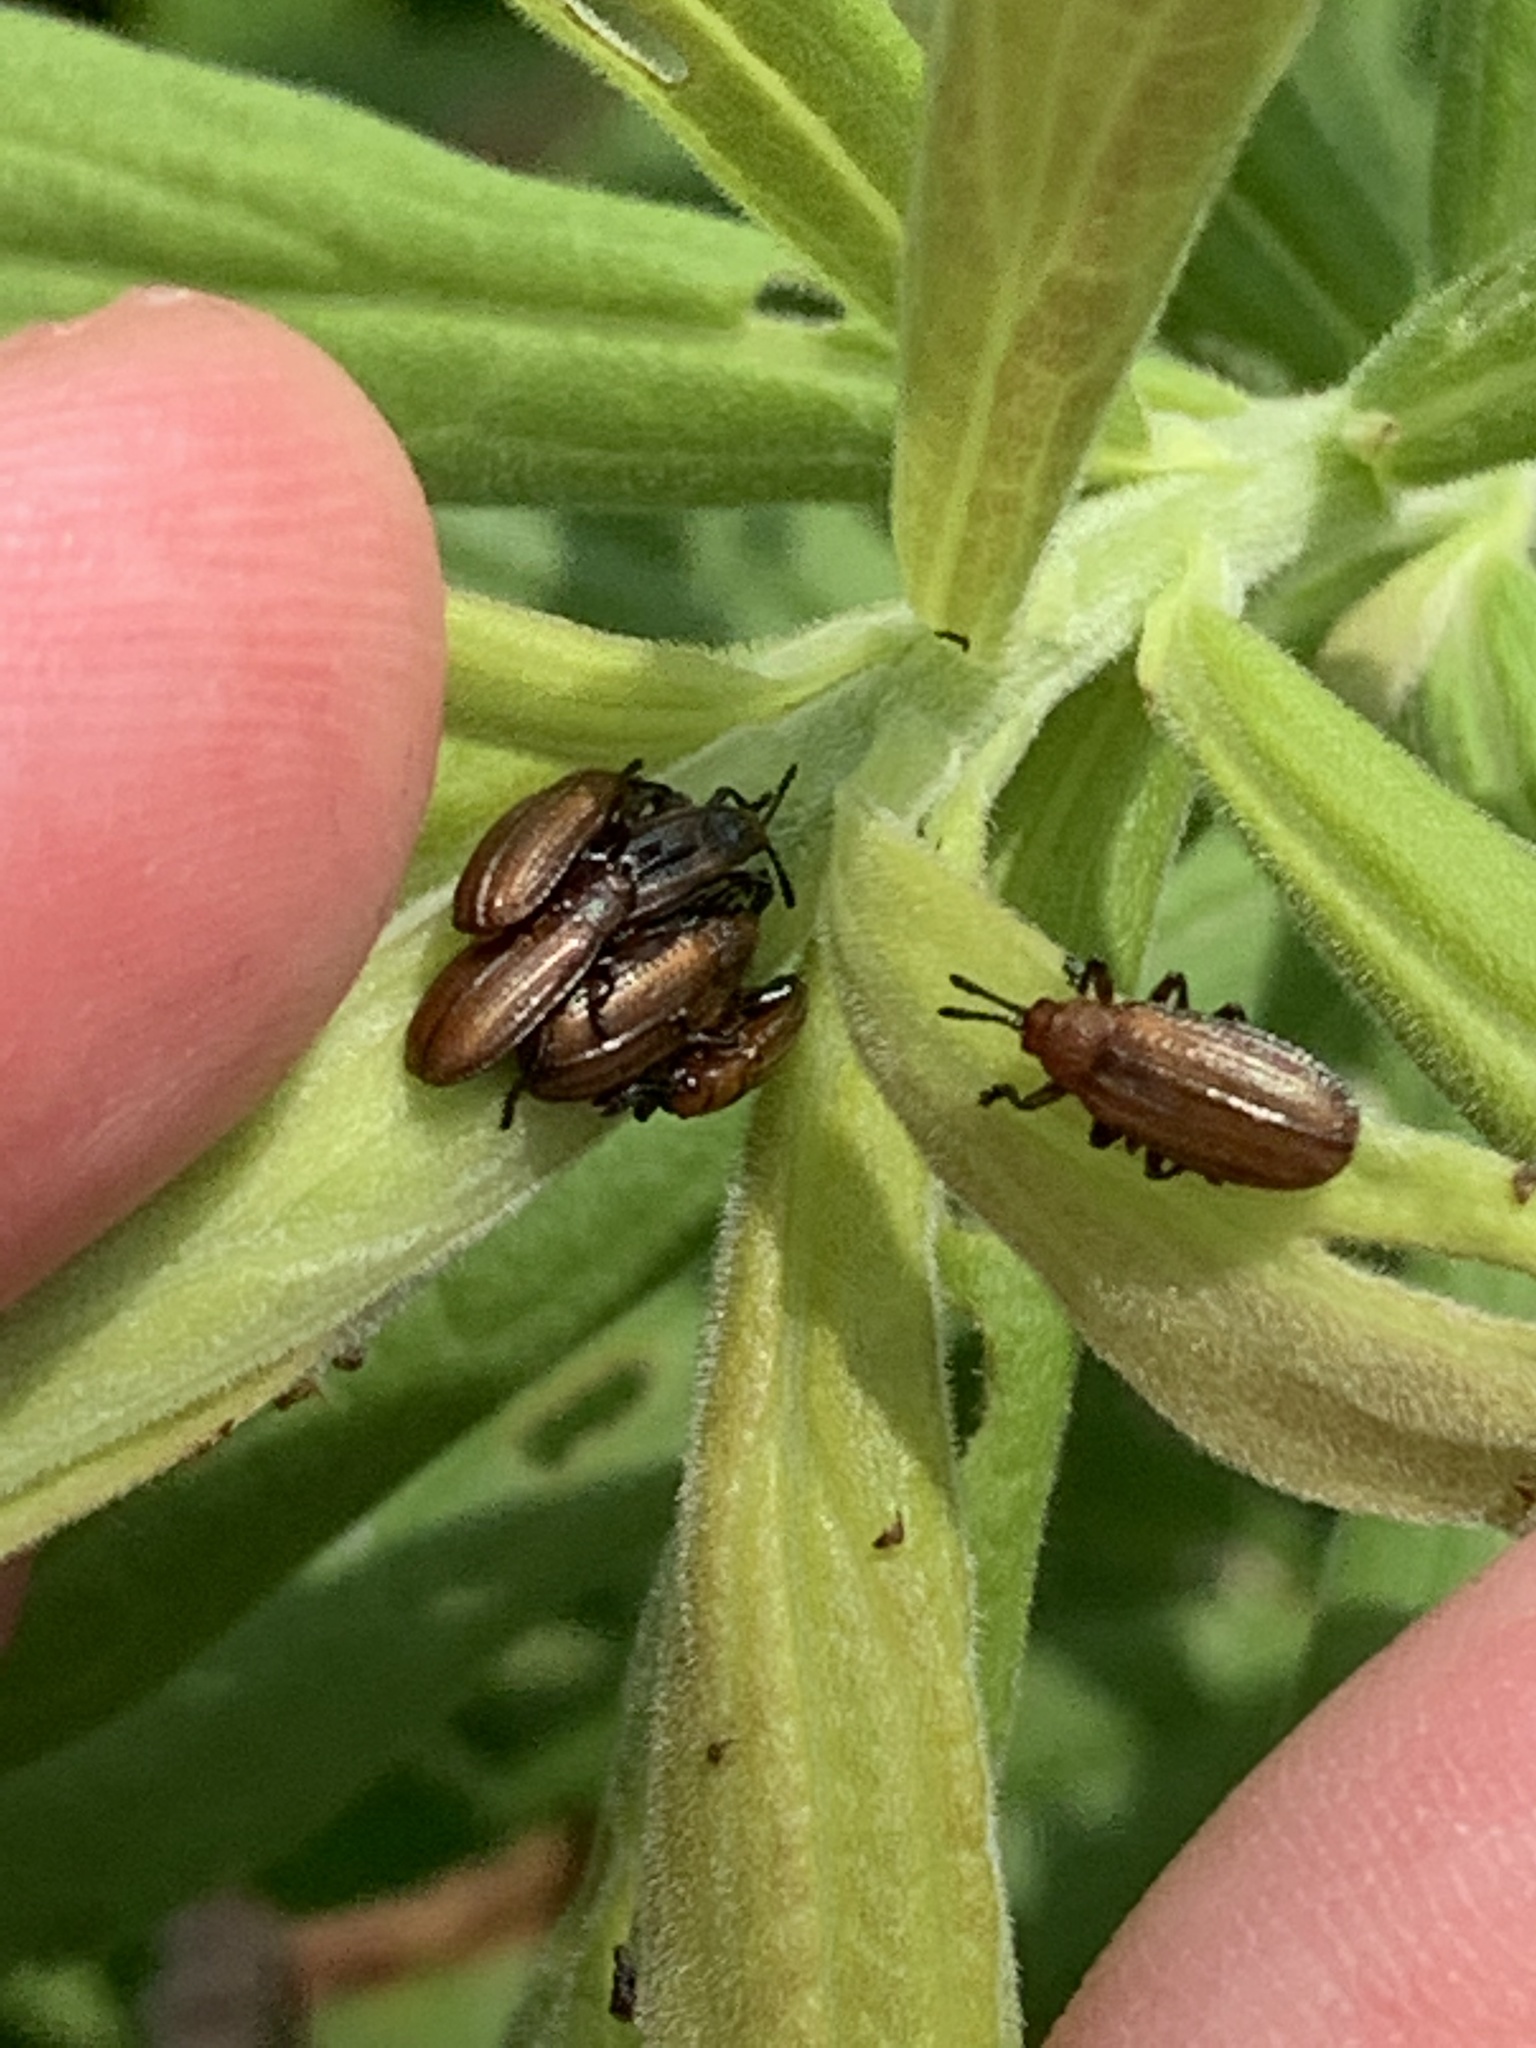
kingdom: Animalia
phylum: Arthropoda
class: Insecta
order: Coleoptera
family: Chrysomelidae
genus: Microrhopala
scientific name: Microrhopala vittata
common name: Goldenrod leaf miner beetle
